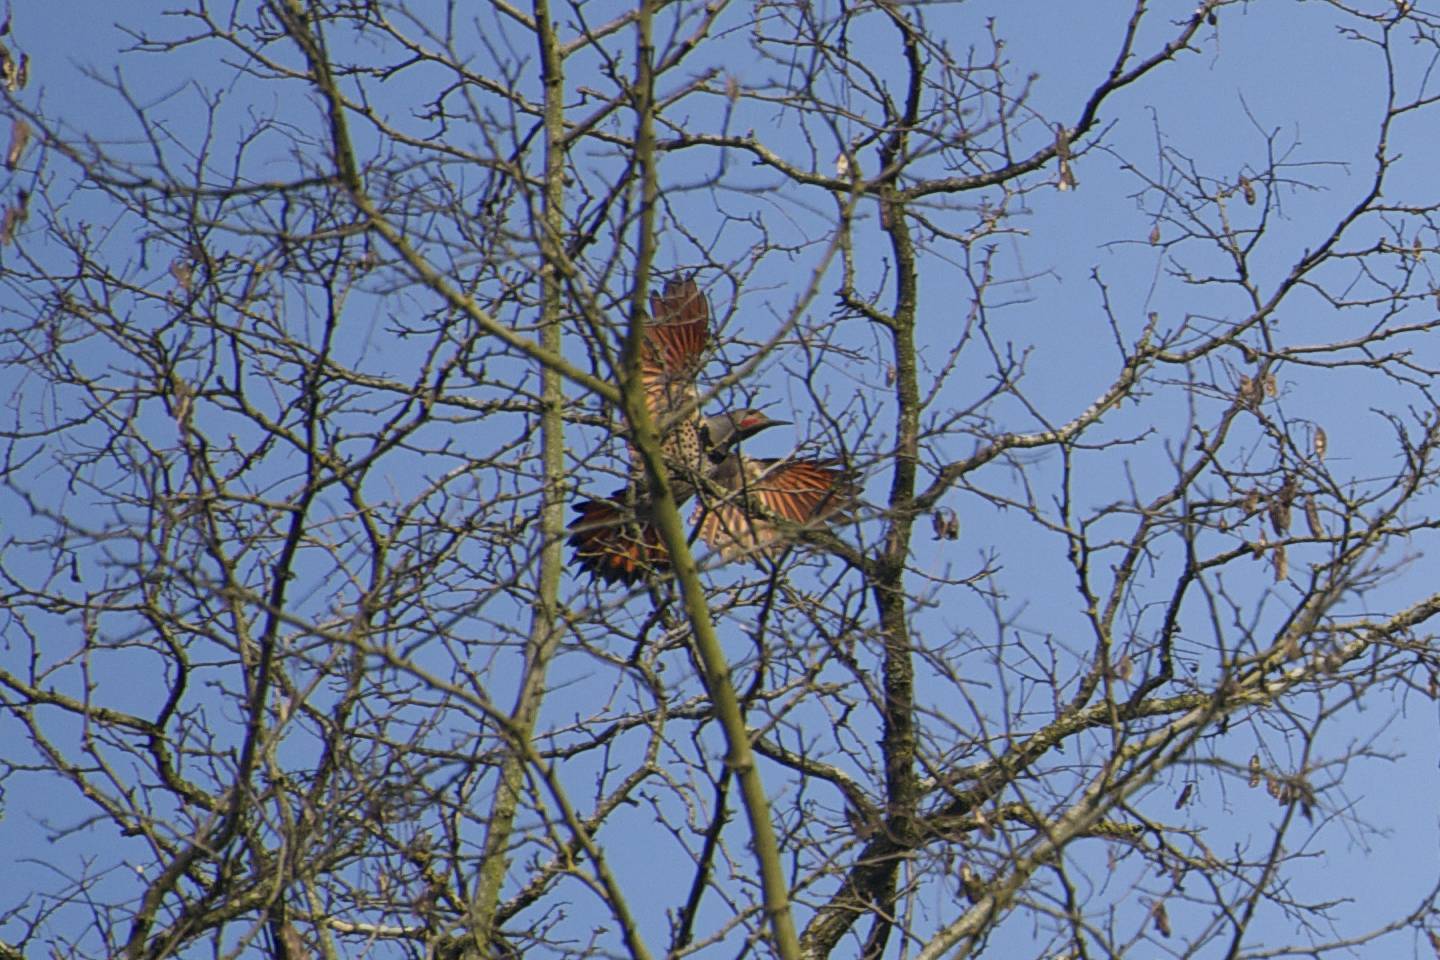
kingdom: Animalia
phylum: Chordata
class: Aves
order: Piciformes
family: Picidae
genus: Colaptes
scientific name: Colaptes auratus
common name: Northern flicker
